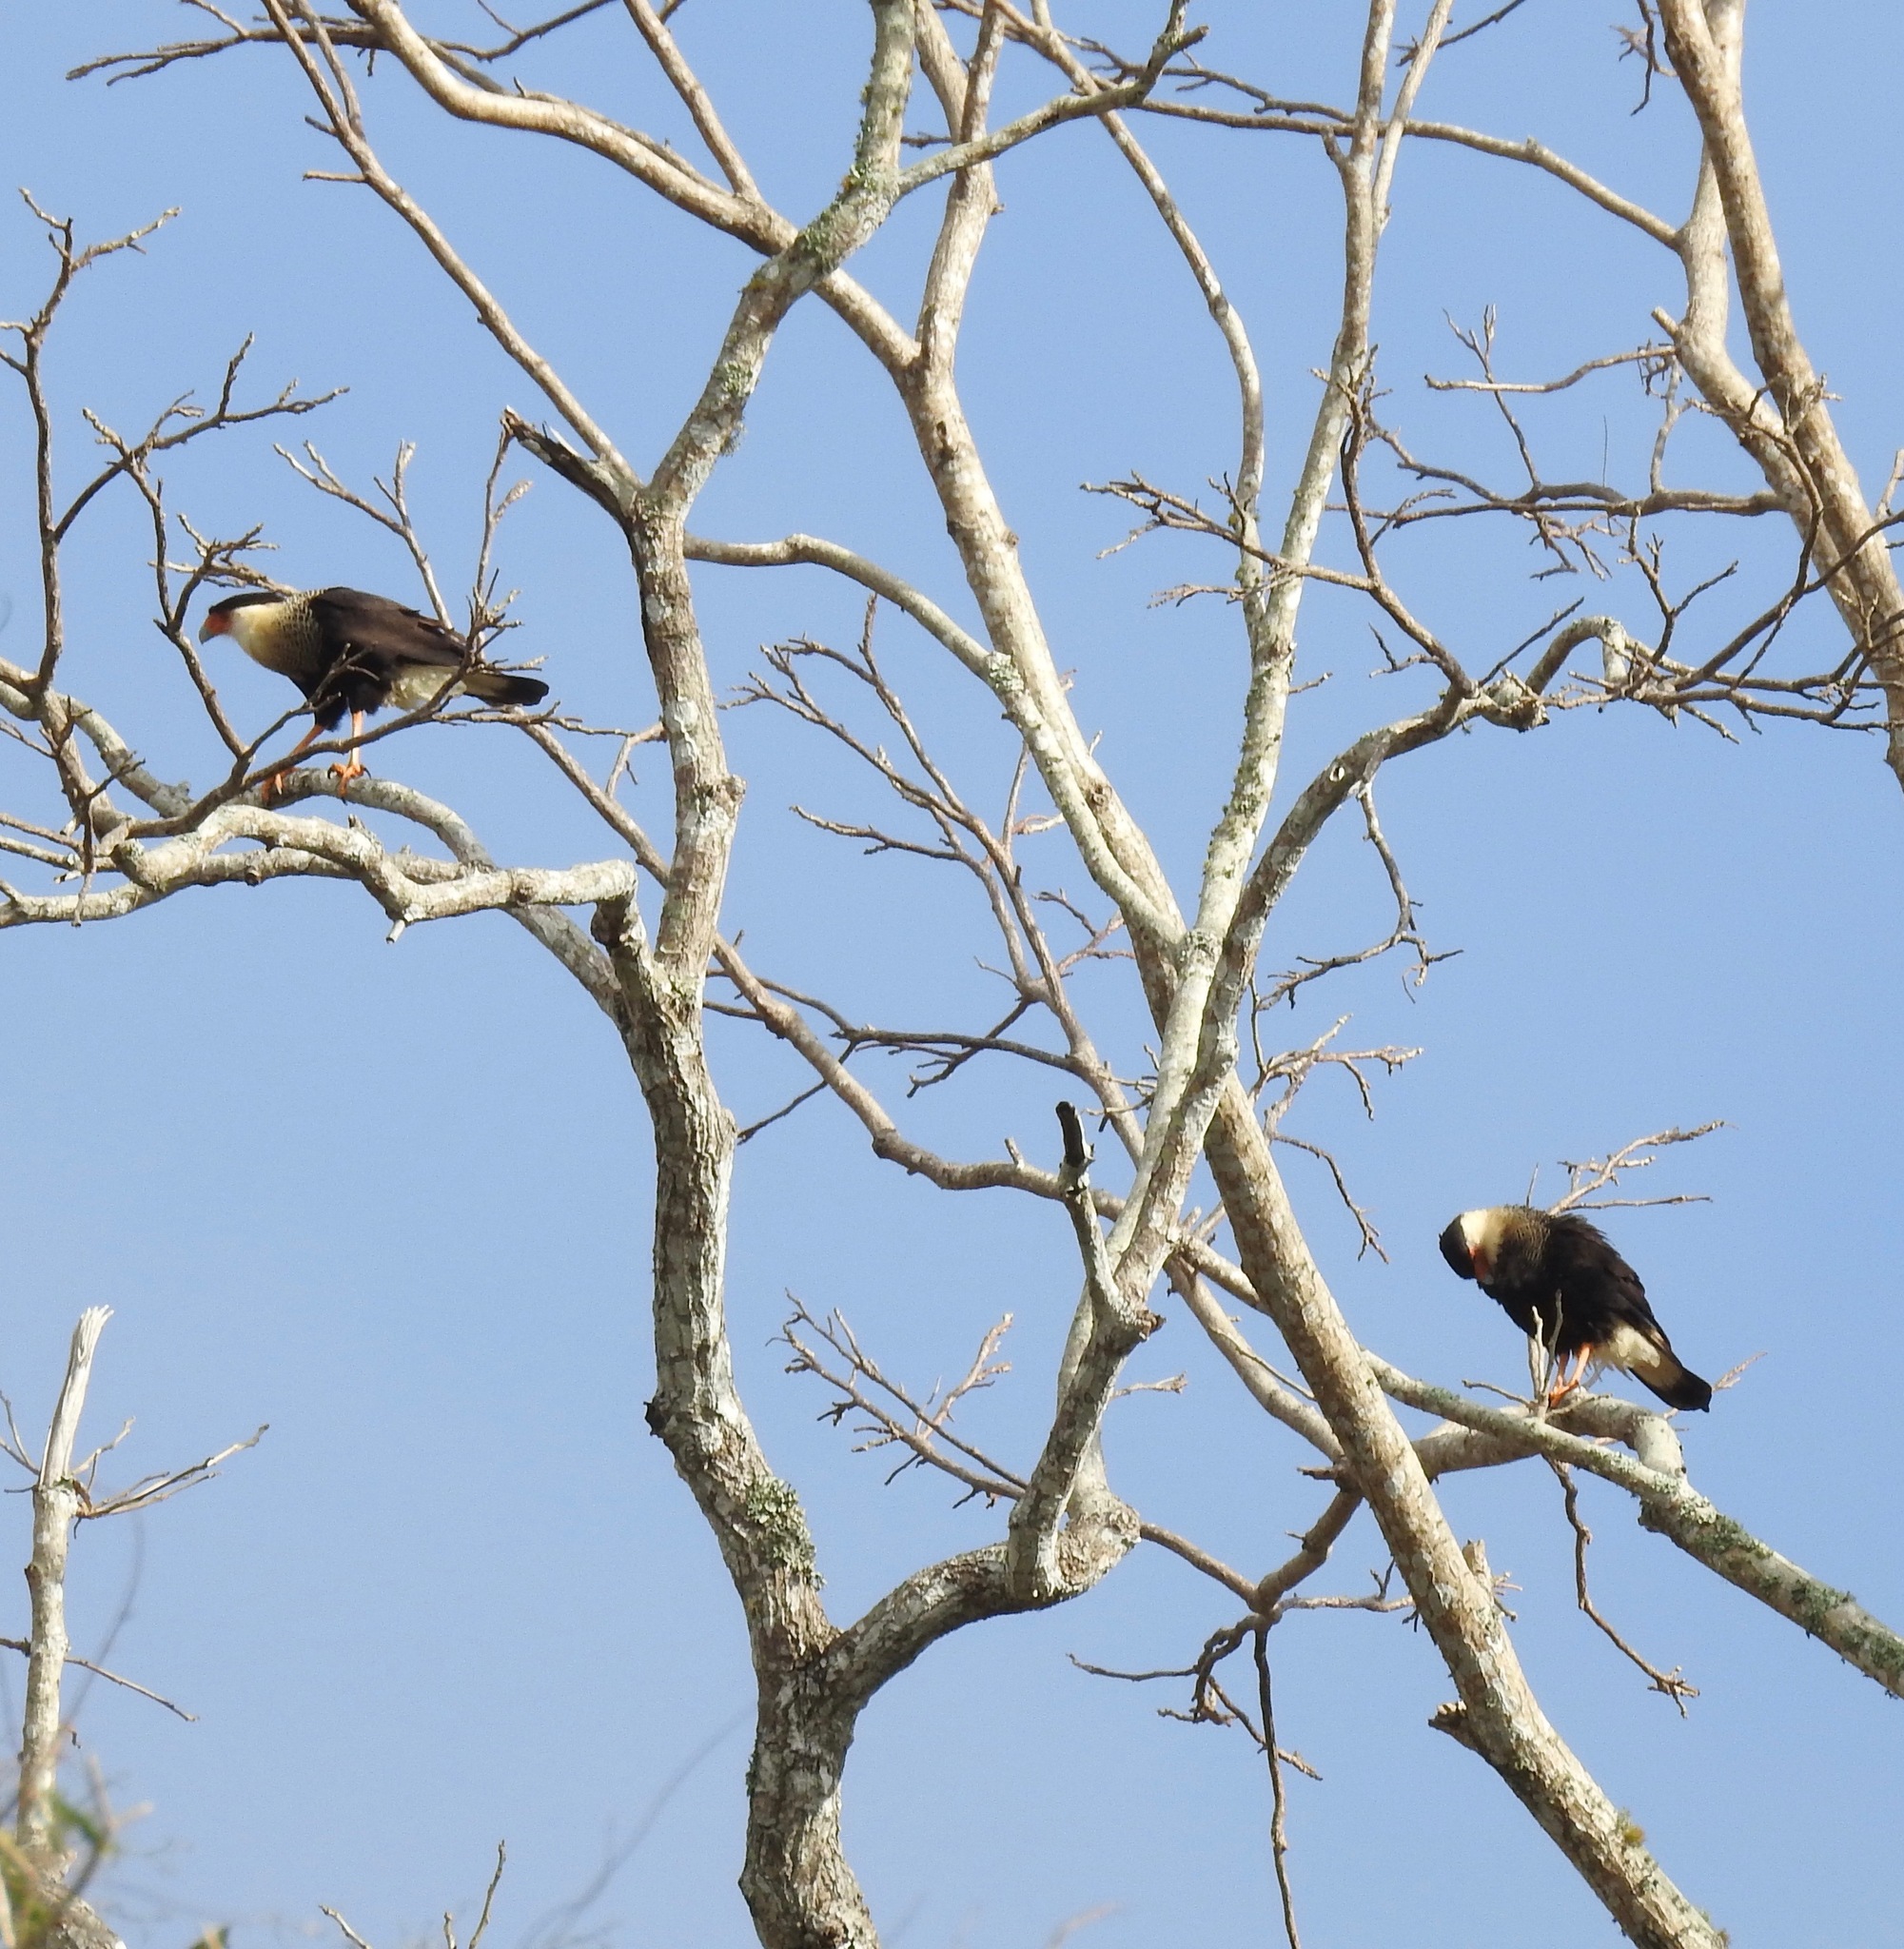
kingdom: Animalia
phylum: Chordata
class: Aves
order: Falconiformes
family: Falconidae
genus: Caracara
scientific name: Caracara plancus
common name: Southern caracara
